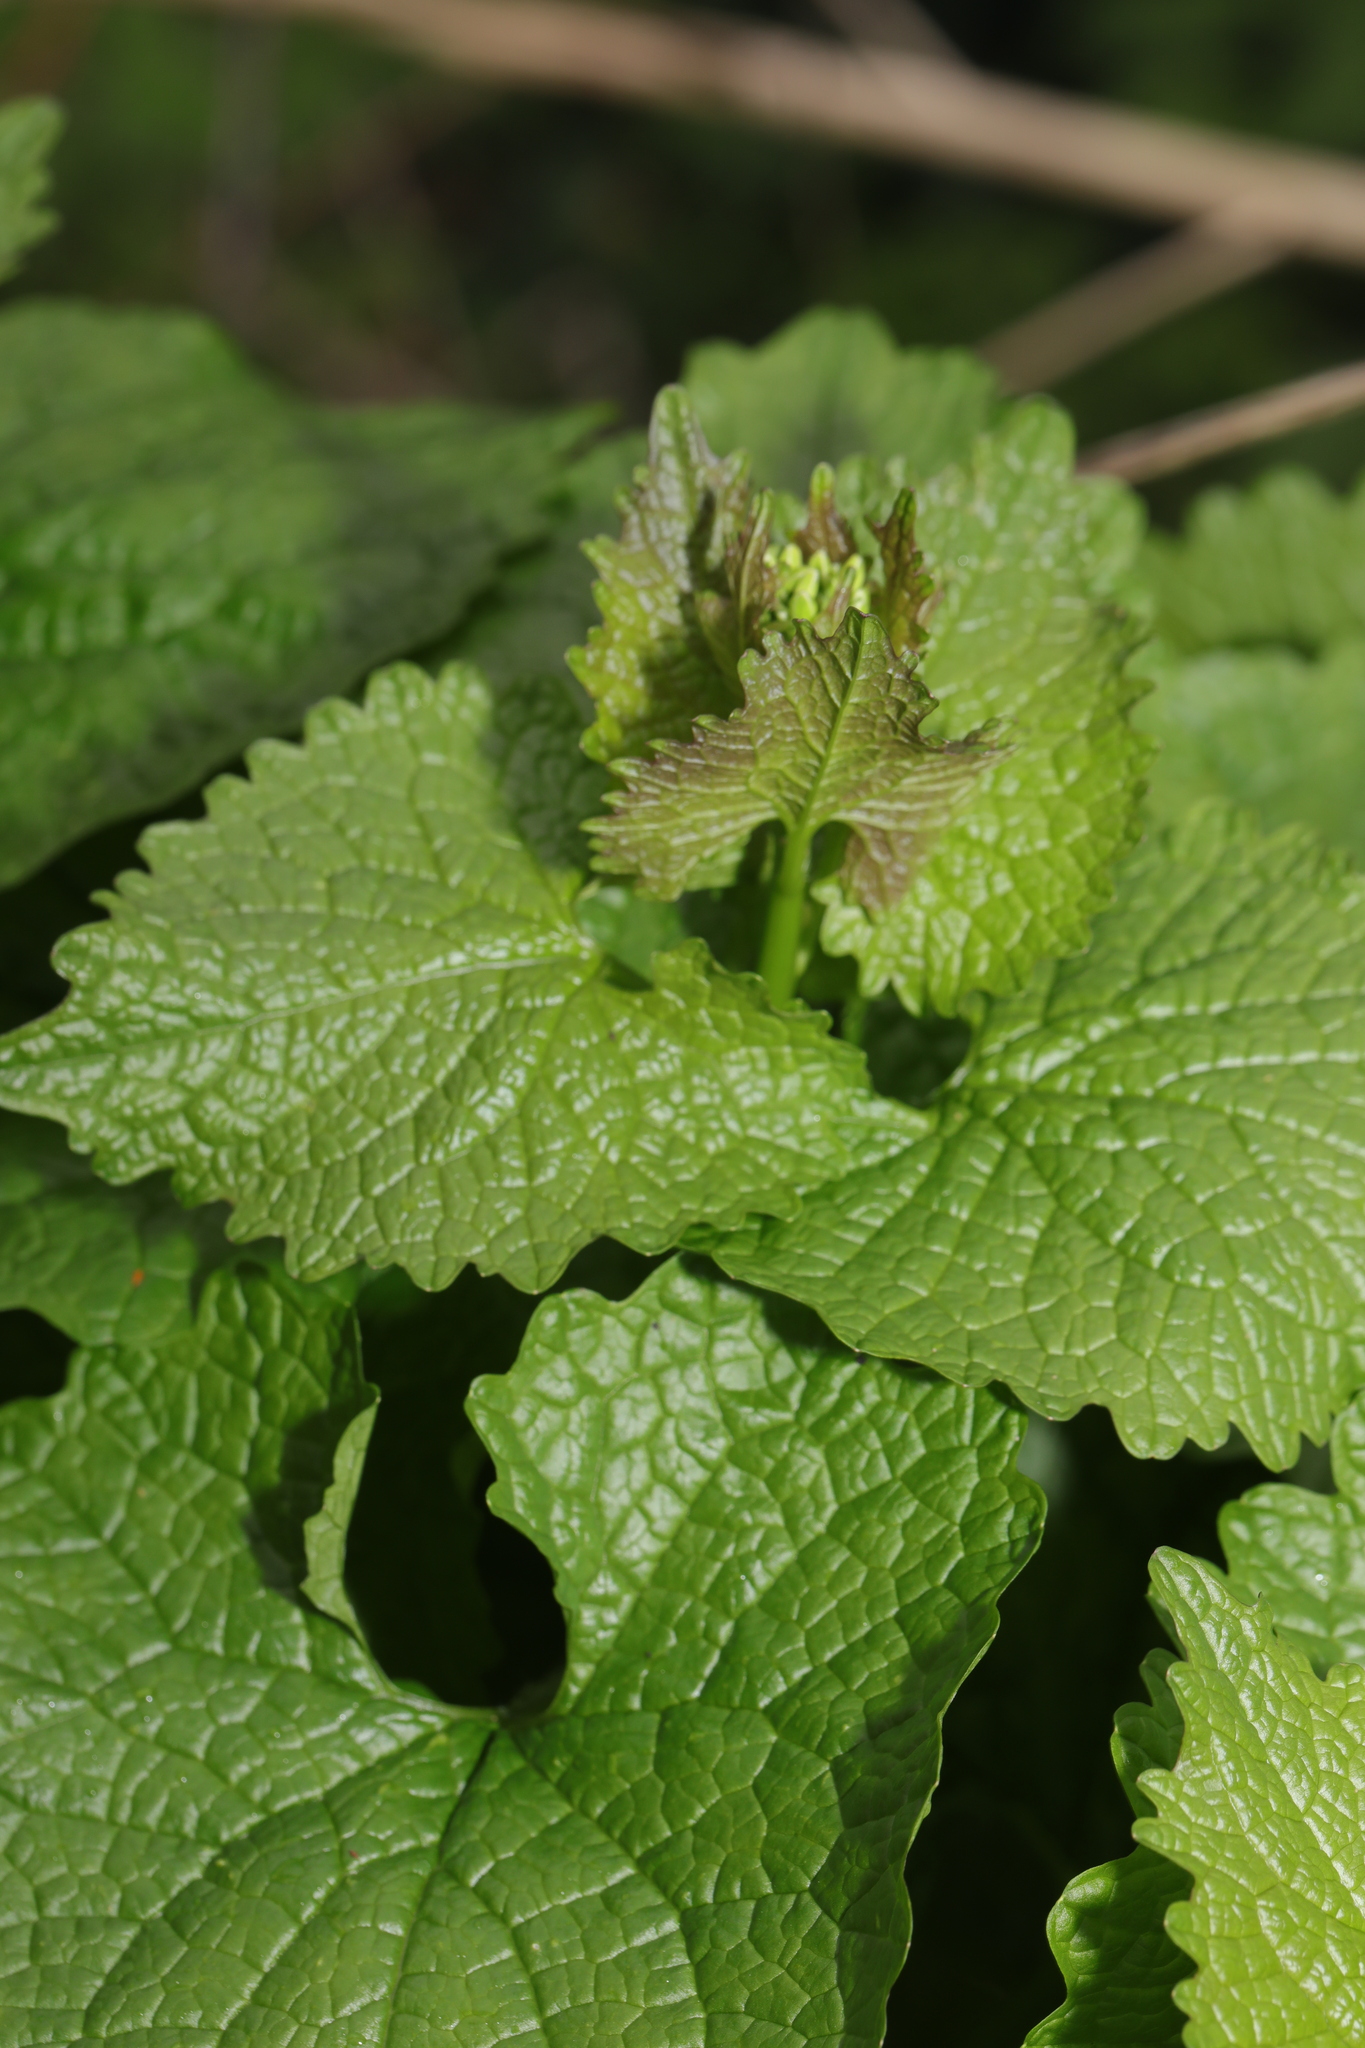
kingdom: Plantae
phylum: Tracheophyta
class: Magnoliopsida
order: Brassicales
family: Brassicaceae
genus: Alliaria
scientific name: Alliaria petiolata
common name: Garlic mustard
